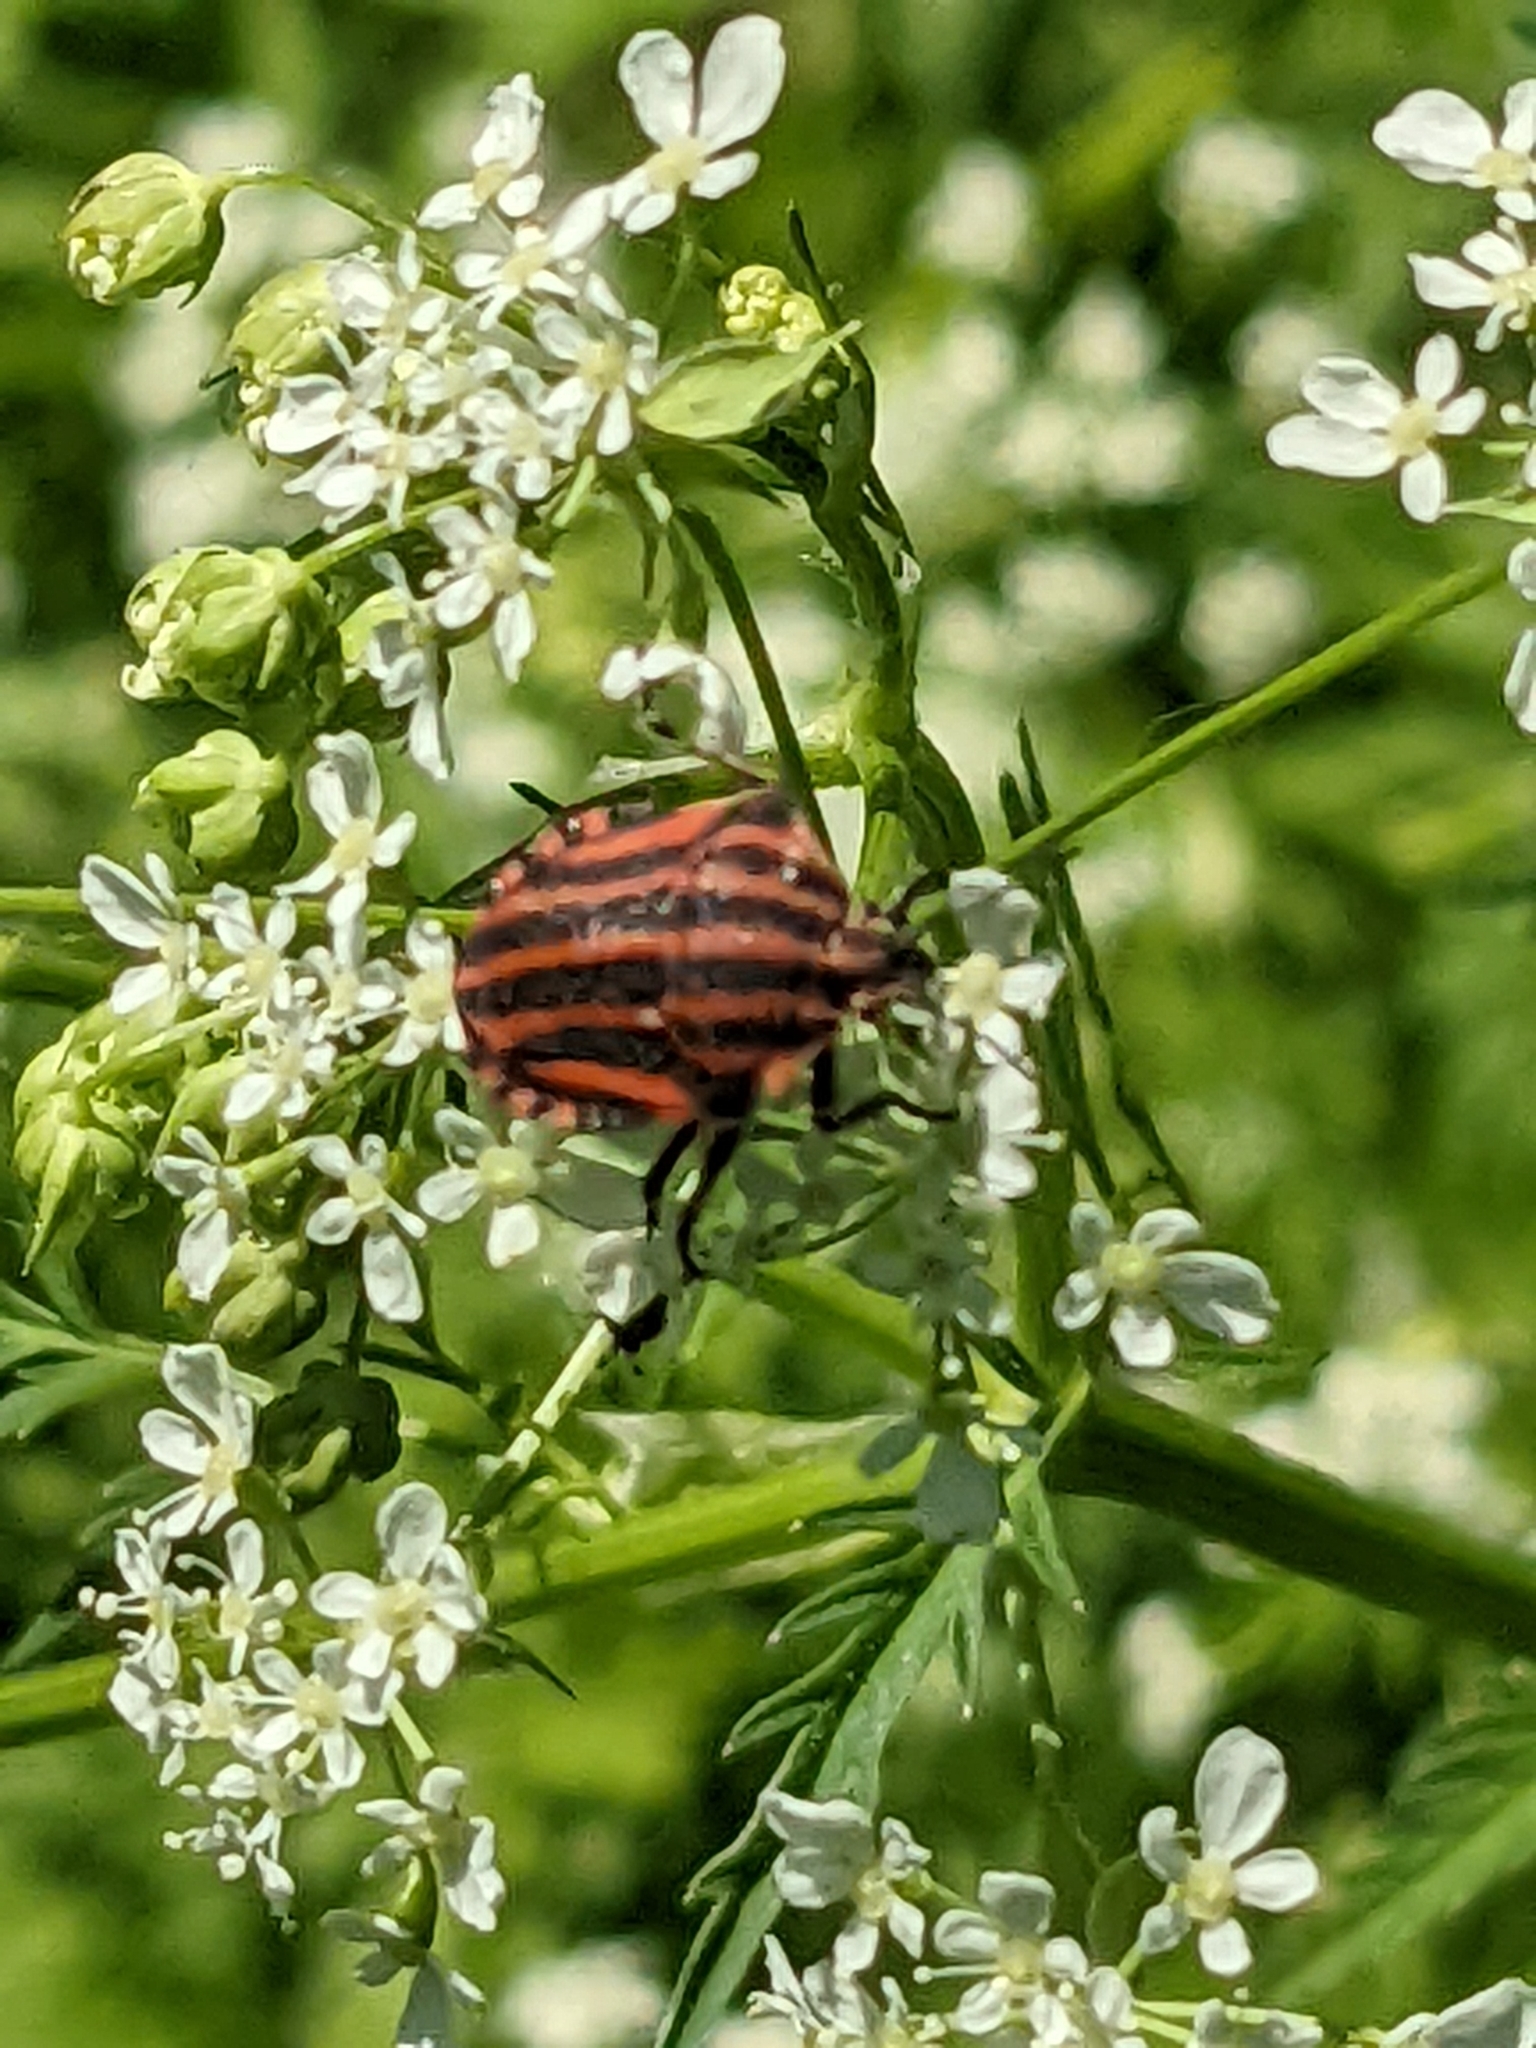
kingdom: Animalia
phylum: Arthropoda
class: Insecta
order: Hemiptera
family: Pentatomidae
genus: Graphosoma
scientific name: Graphosoma italicum
